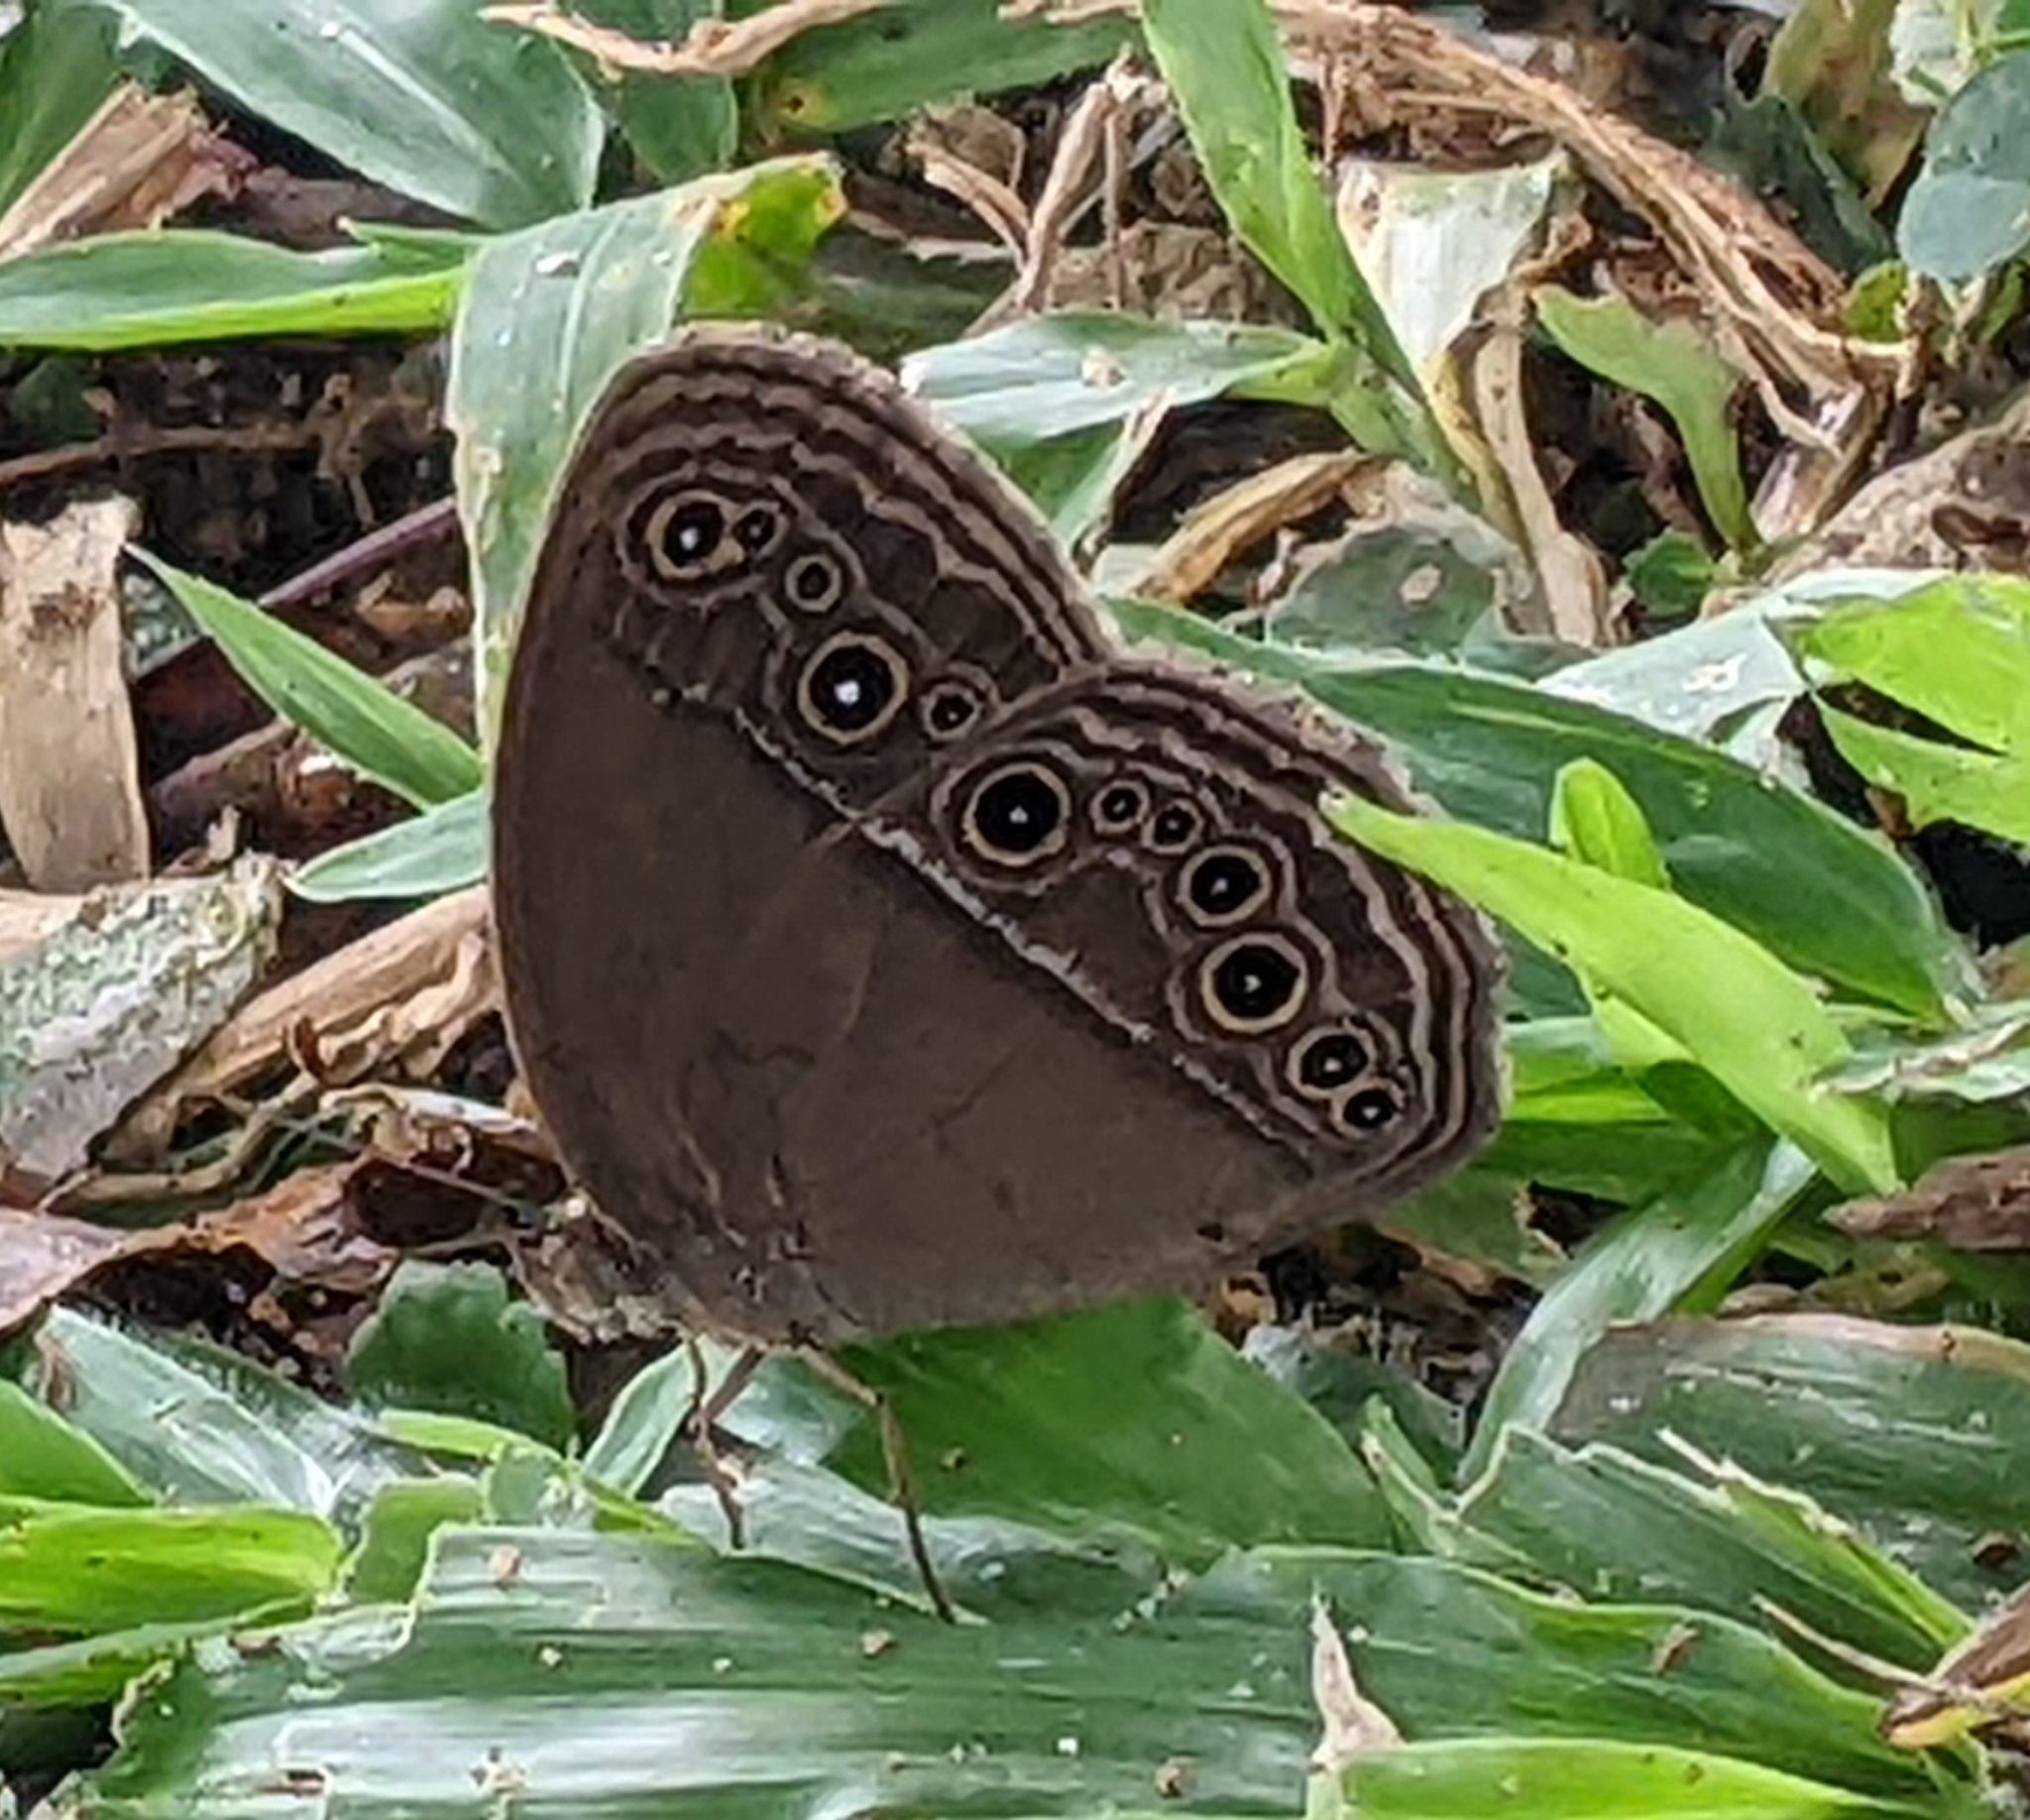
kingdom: Animalia
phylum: Arthropoda
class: Insecta
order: Lepidoptera
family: Nymphalidae
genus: Mycalesis
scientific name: Mycalesis perseus
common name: Dingy bushbrown
